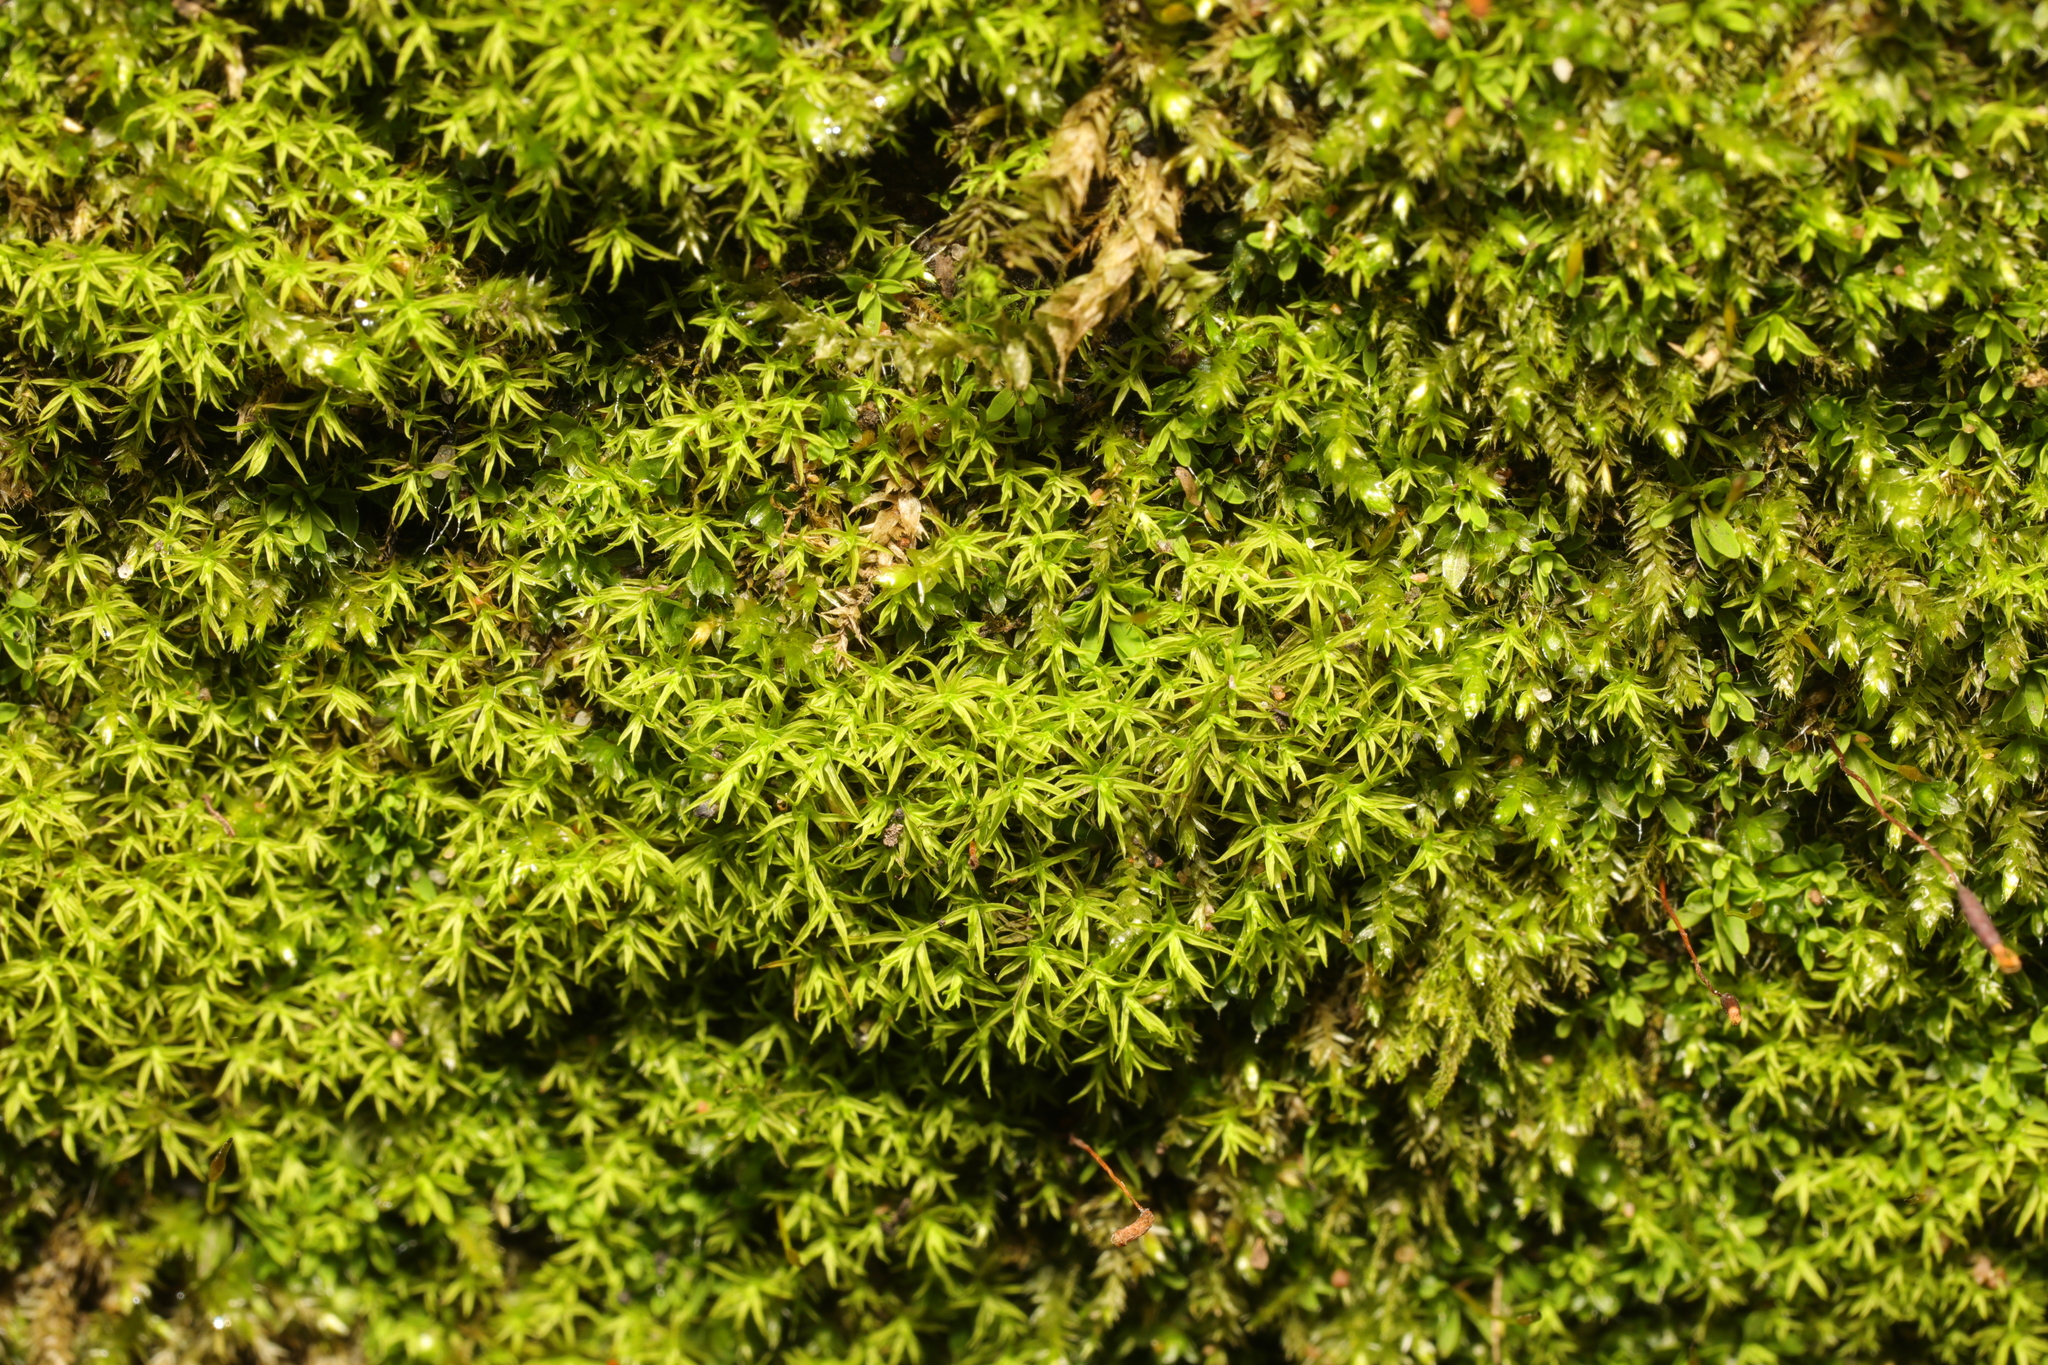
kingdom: Plantae
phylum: Bryophyta
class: Bryopsida
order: Pottiales
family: Pottiaceae
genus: Bryoerythrophyllum
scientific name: Bryoerythrophyllum recurvirostrum
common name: Red beard moss
